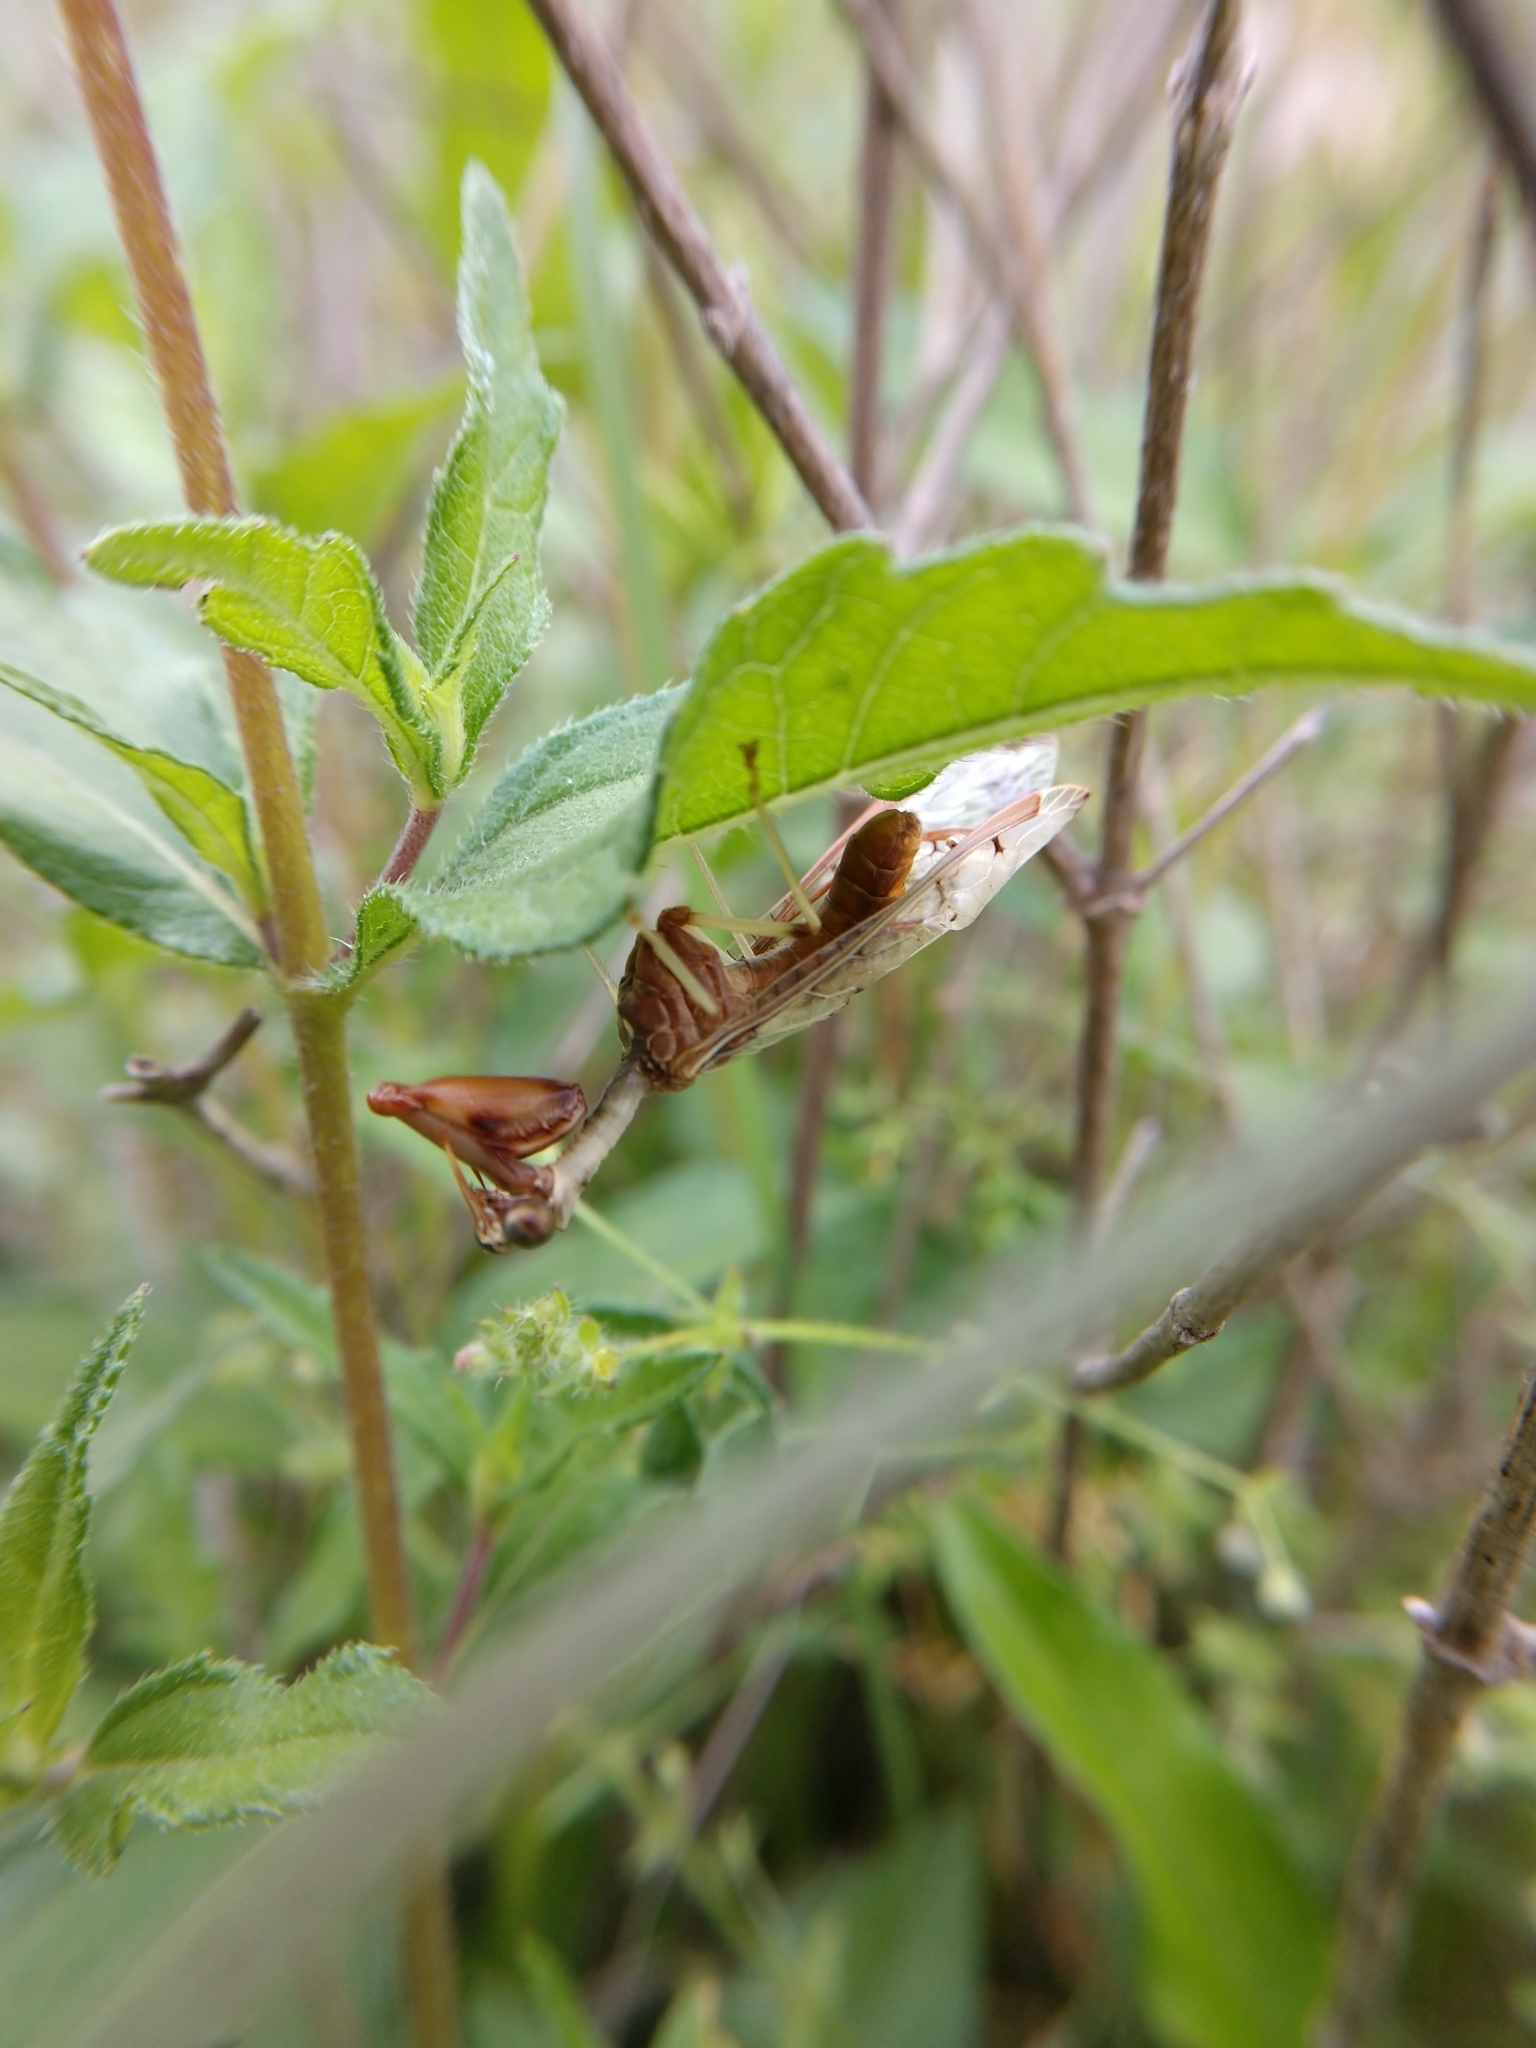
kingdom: Animalia
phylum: Arthropoda
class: Insecta
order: Neuroptera
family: Mantispidae
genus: Dicromantispa
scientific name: Dicromantispa interrupta
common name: Four-spotted mantidfly
